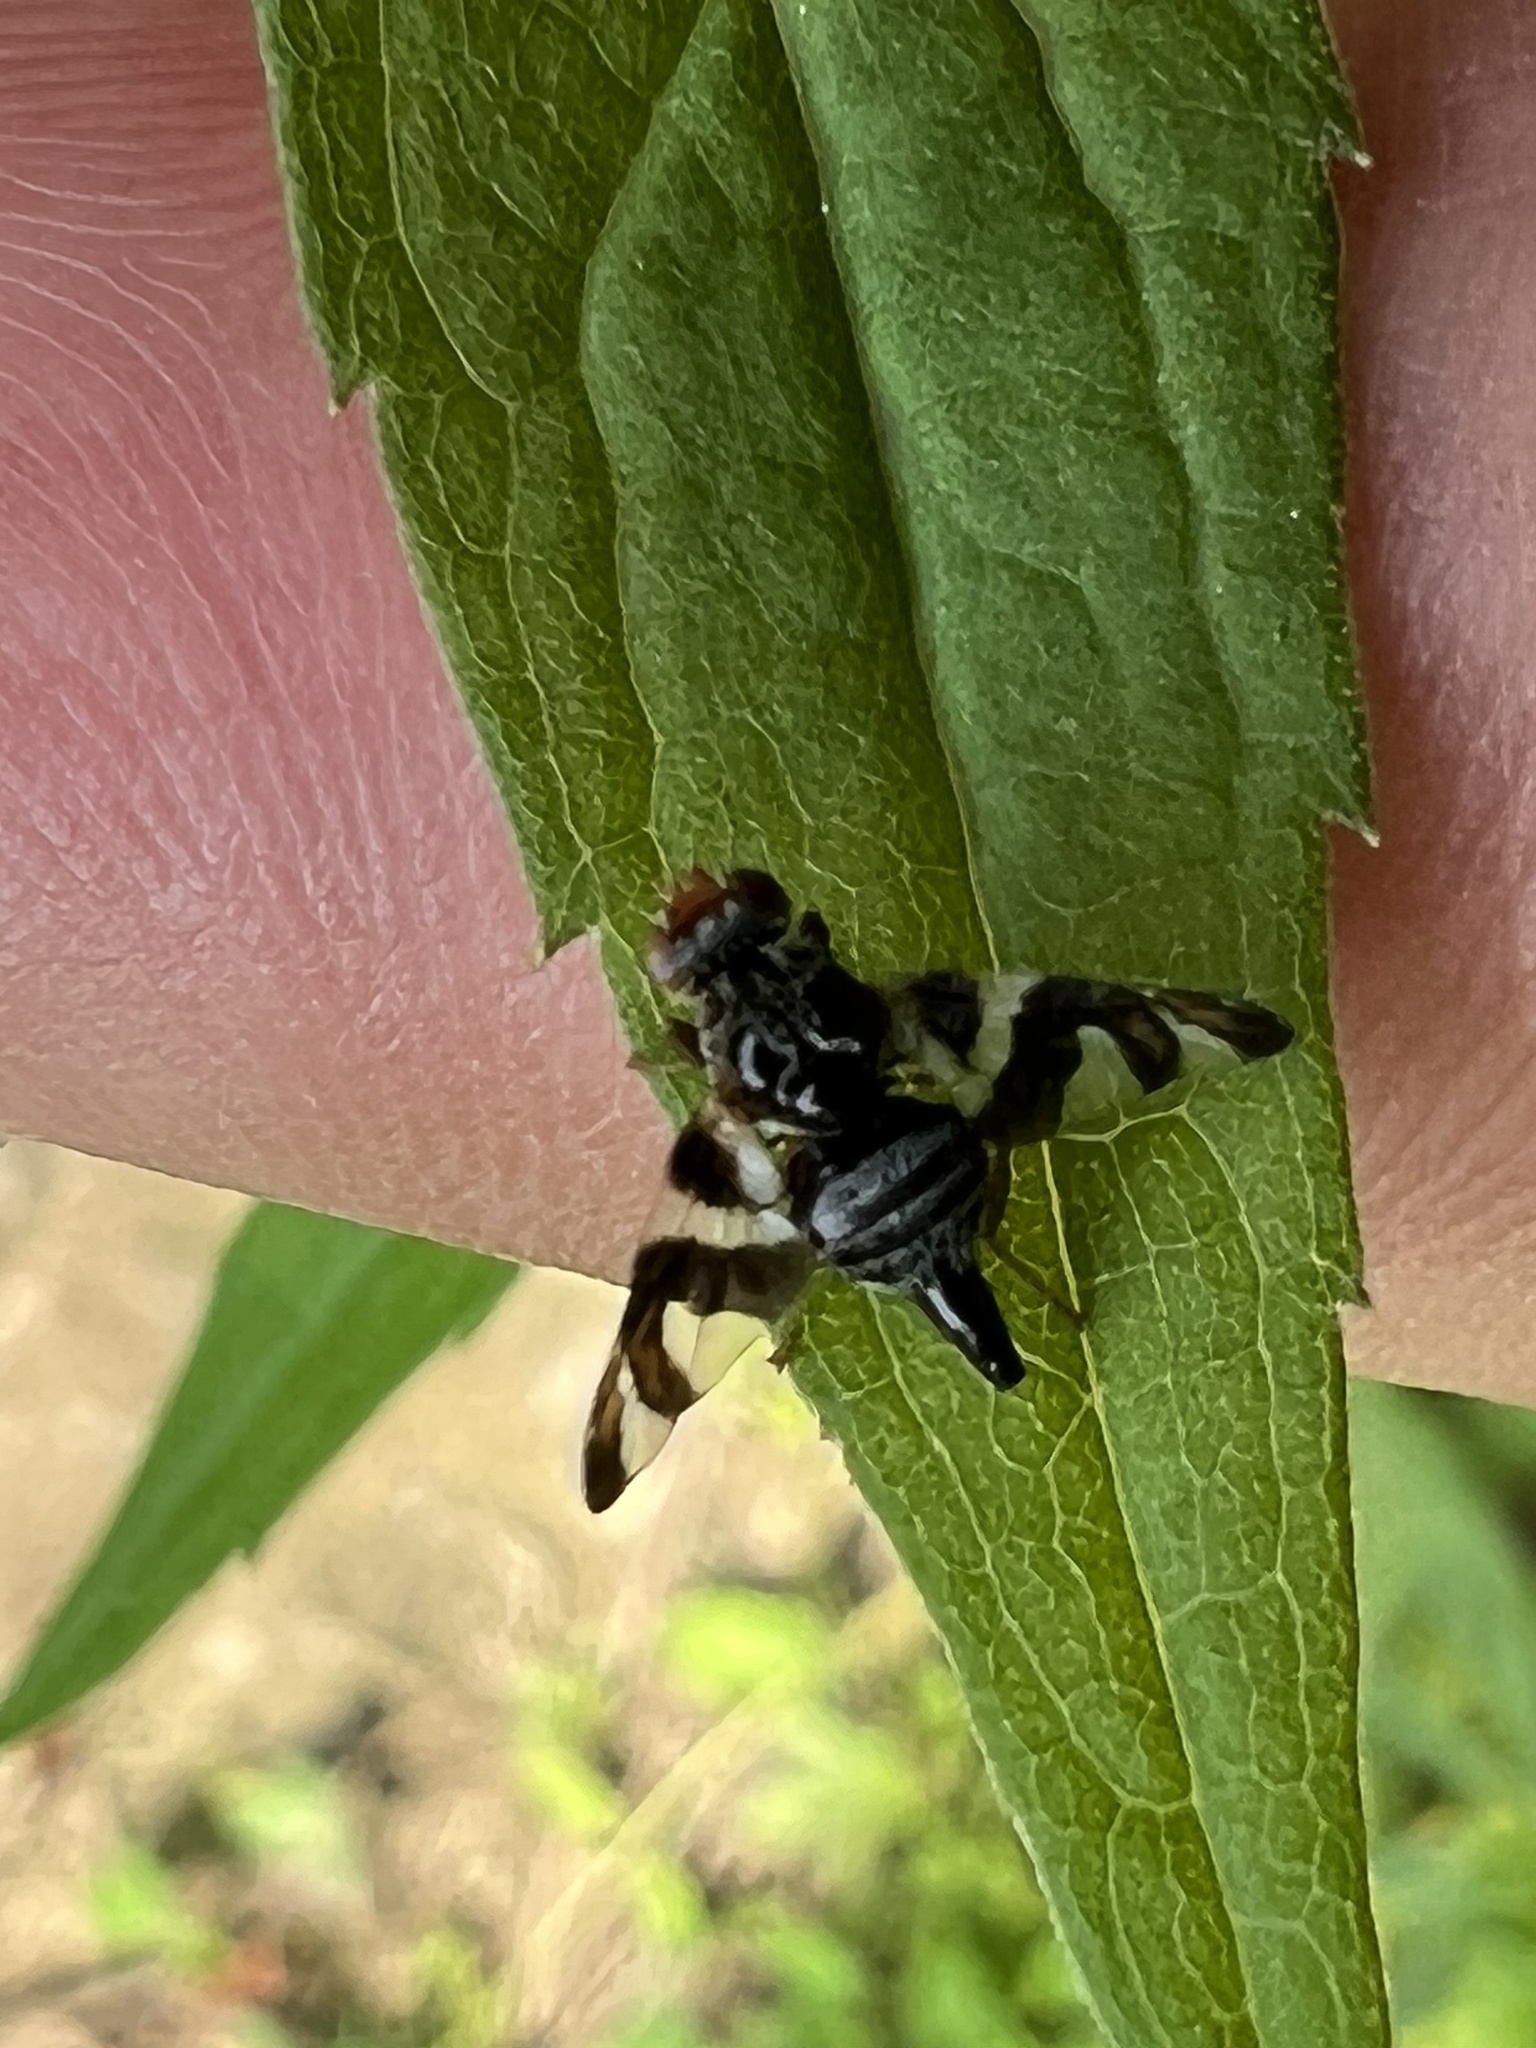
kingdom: Animalia
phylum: Arthropoda
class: Insecta
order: Diptera
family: Tephritidae
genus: Procecidochares
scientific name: Procecidochares atra
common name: Goldenrod brussels sprout gall fly
